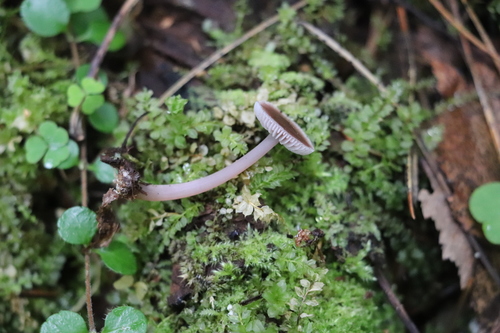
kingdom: Fungi
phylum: Basidiomycota
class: Agaricomycetes
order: Agaricales
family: Mycenaceae
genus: Mycena
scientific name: Mycena pura
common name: Lilac bonnet
